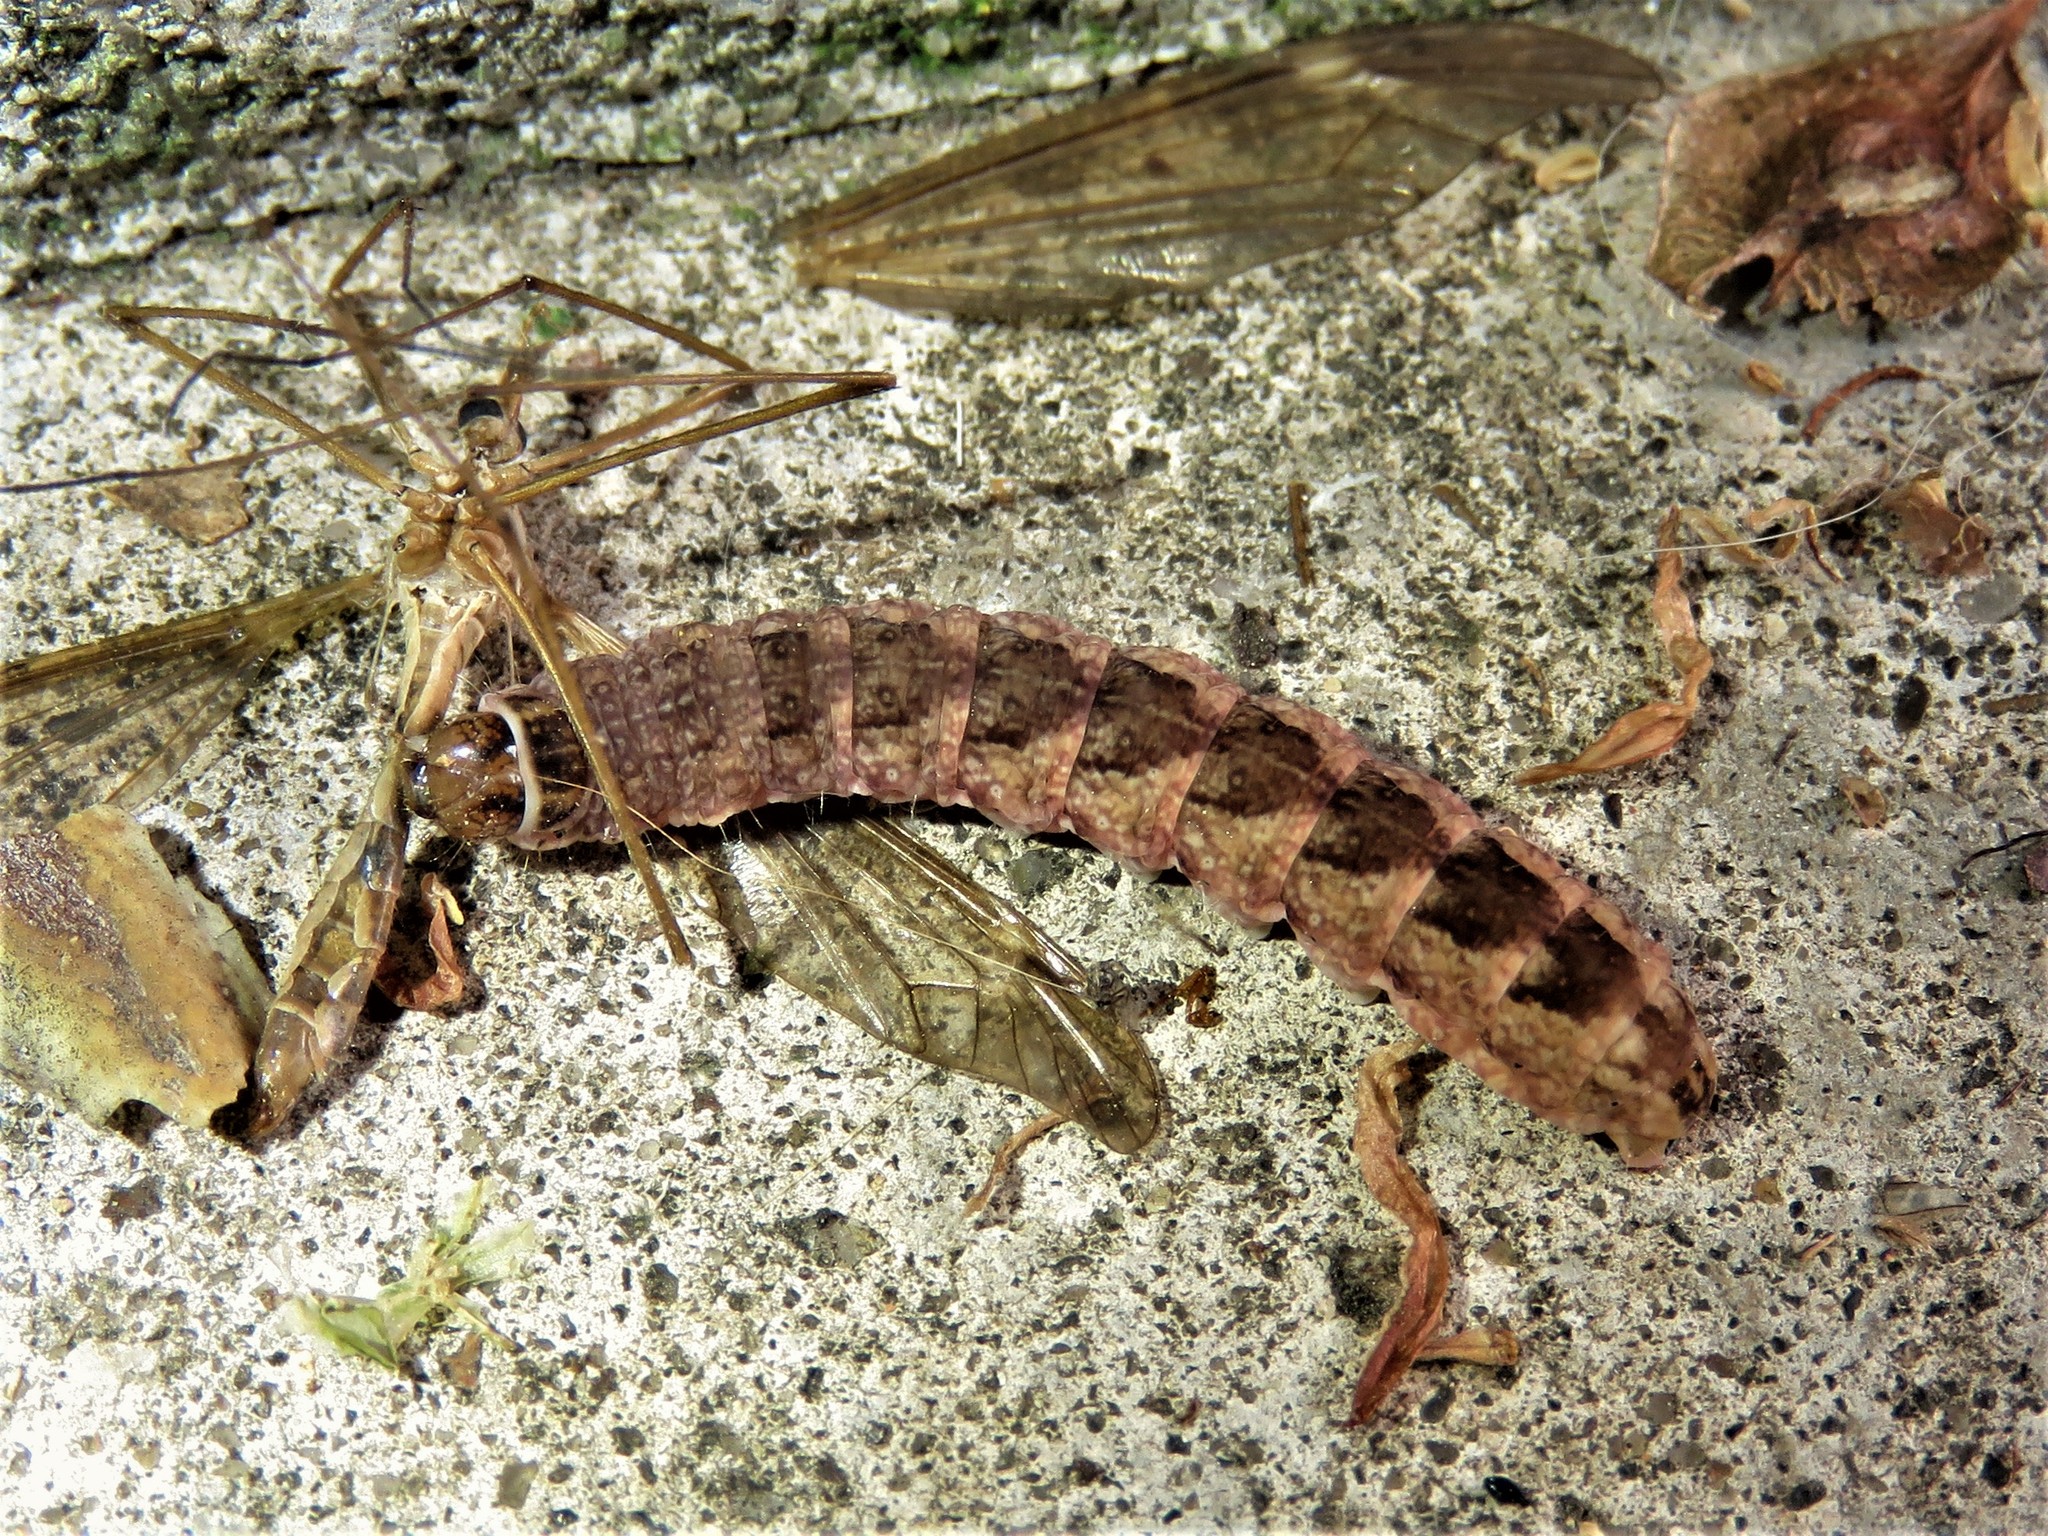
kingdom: Animalia
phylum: Arthropoda
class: Insecta
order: Lepidoptera
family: Noctuidae
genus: Agrochola
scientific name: Agrochola bicolorago
